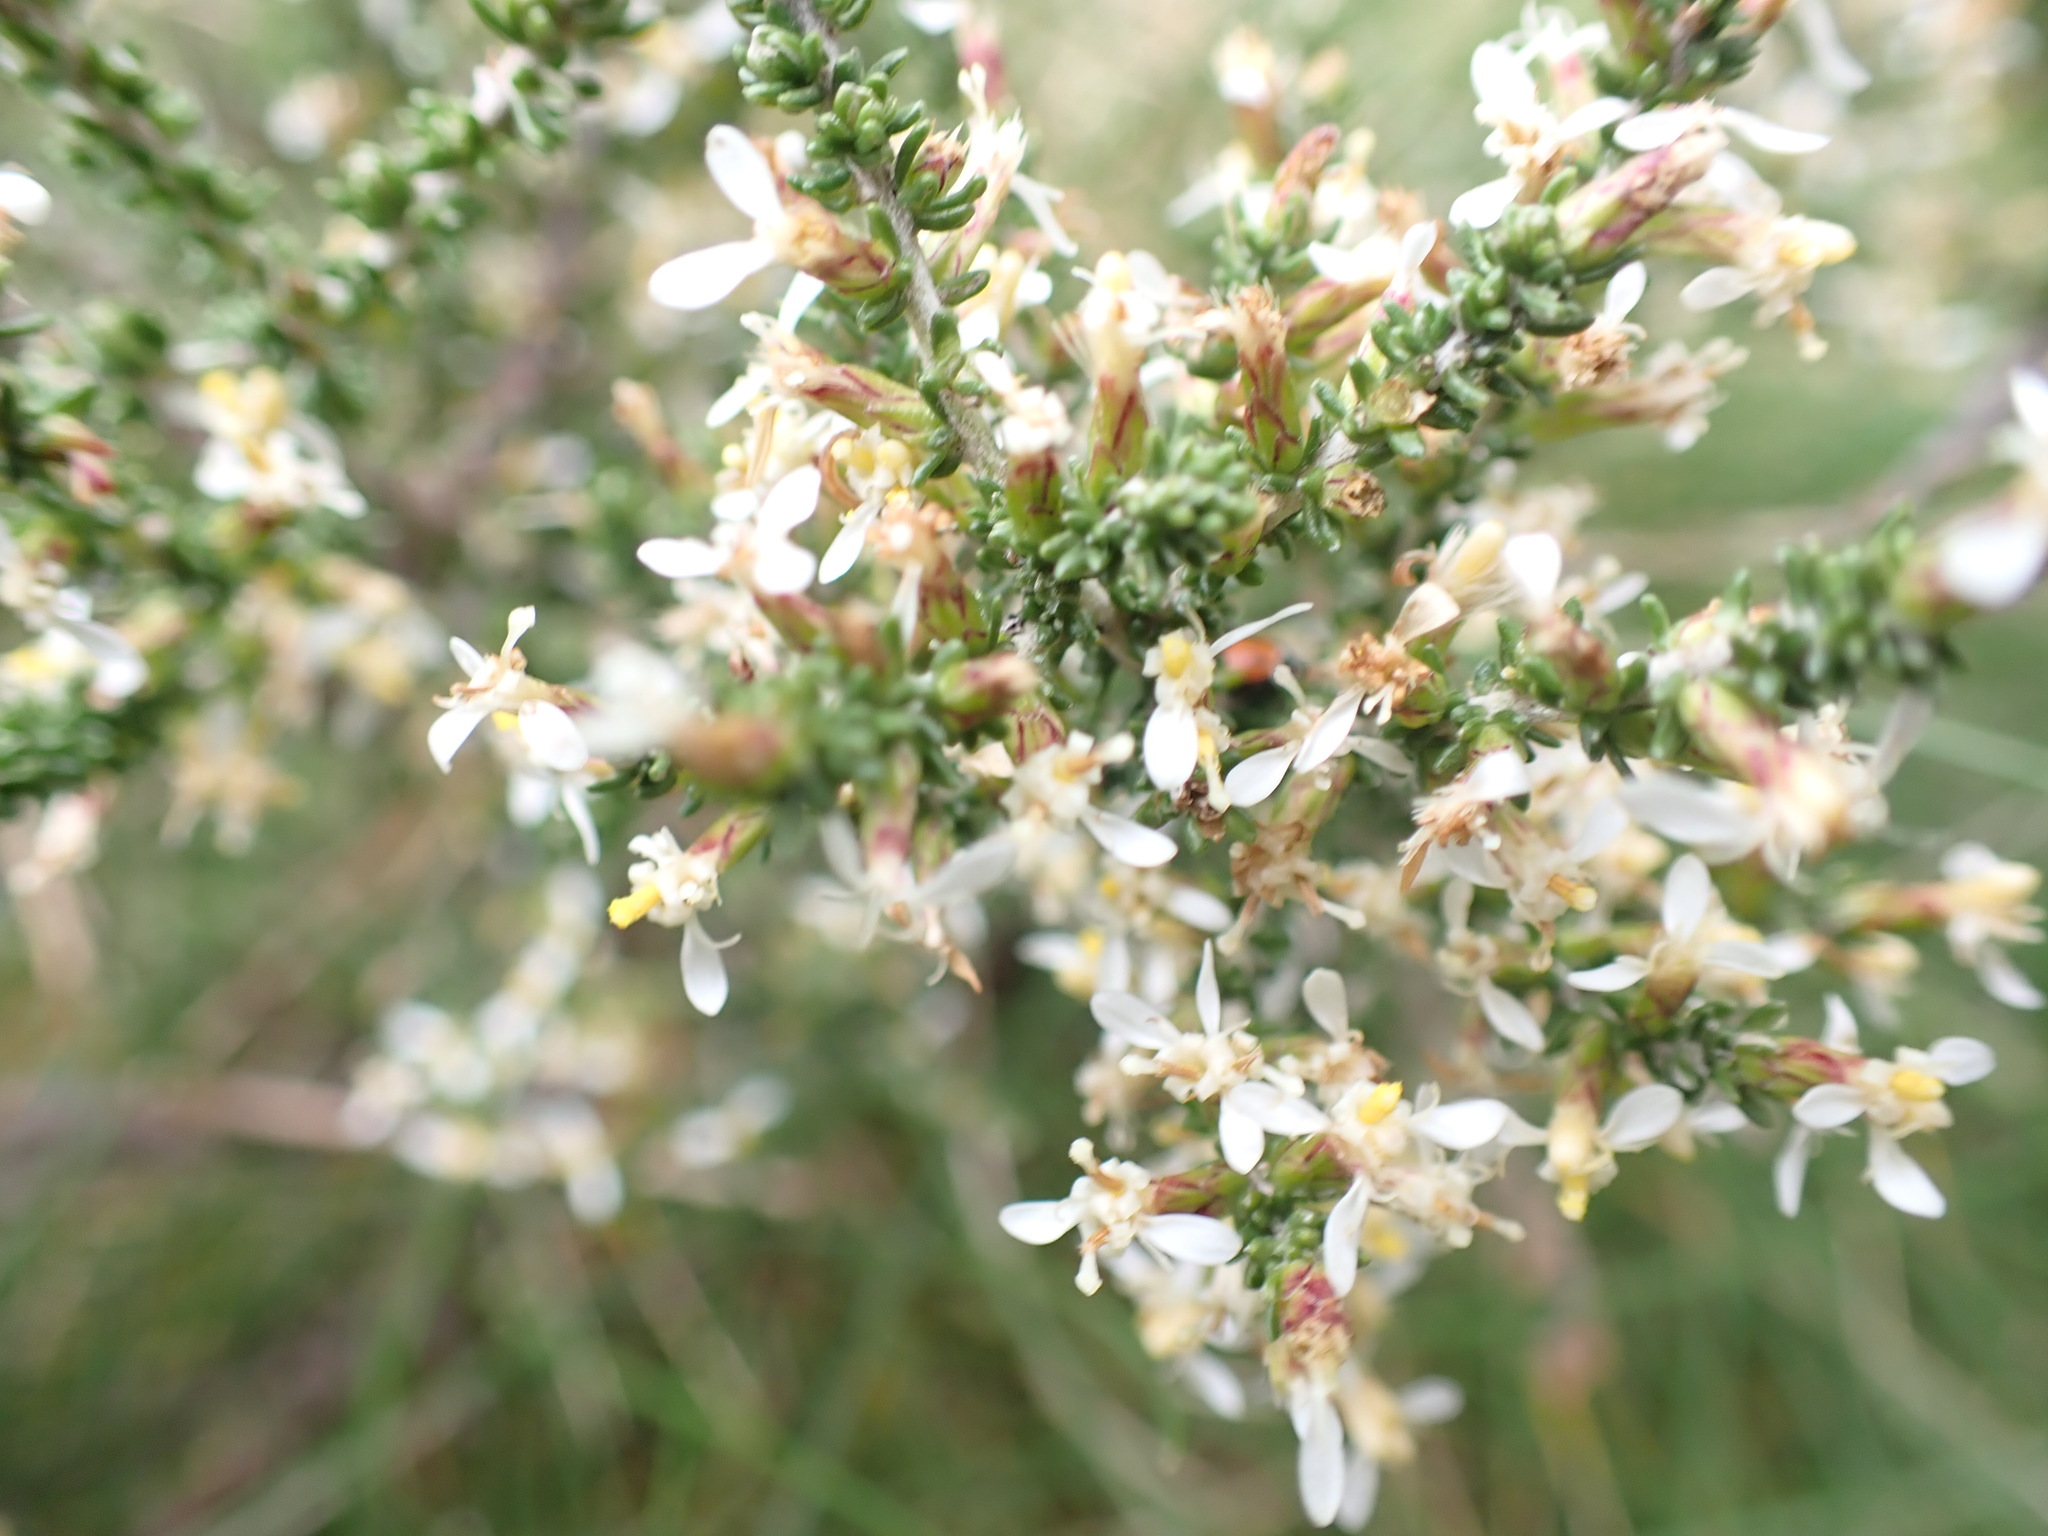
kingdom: Plantae
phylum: Tracheophyta
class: Magnoliopsida
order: Asterales
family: Asteraceae
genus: Olearia
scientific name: Olearia algida
